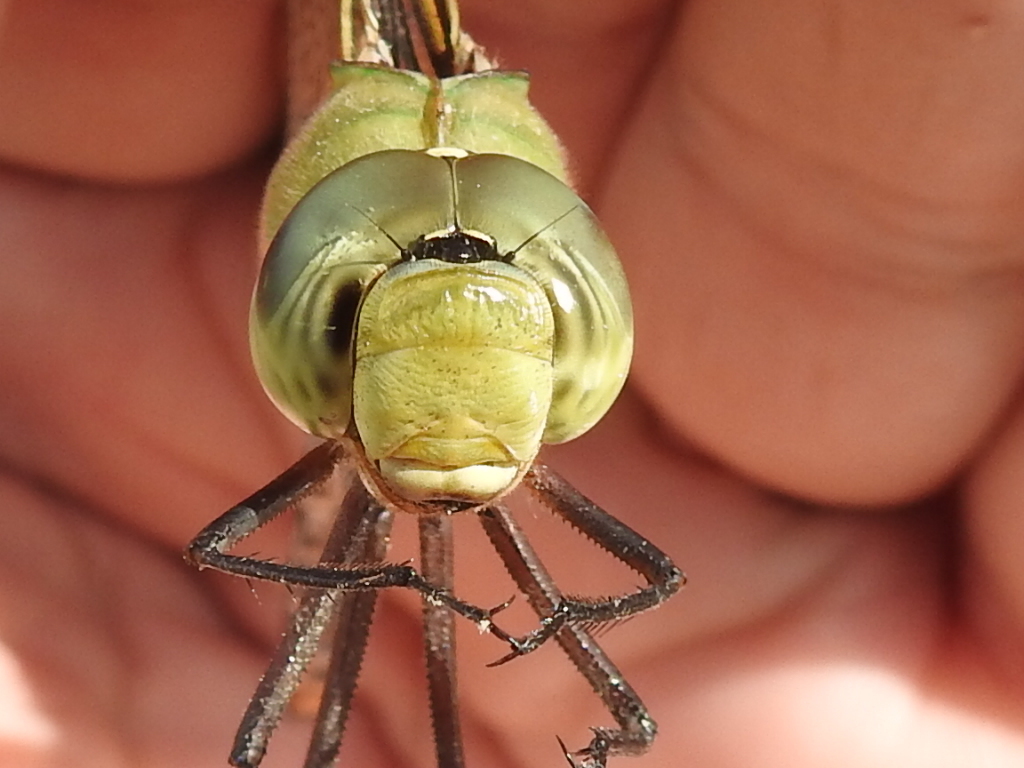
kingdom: Animalia
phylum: Arthropoda
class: Insecta
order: Odonata
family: Aeshnidae
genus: Anax
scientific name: Anax junius
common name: Common green darner
